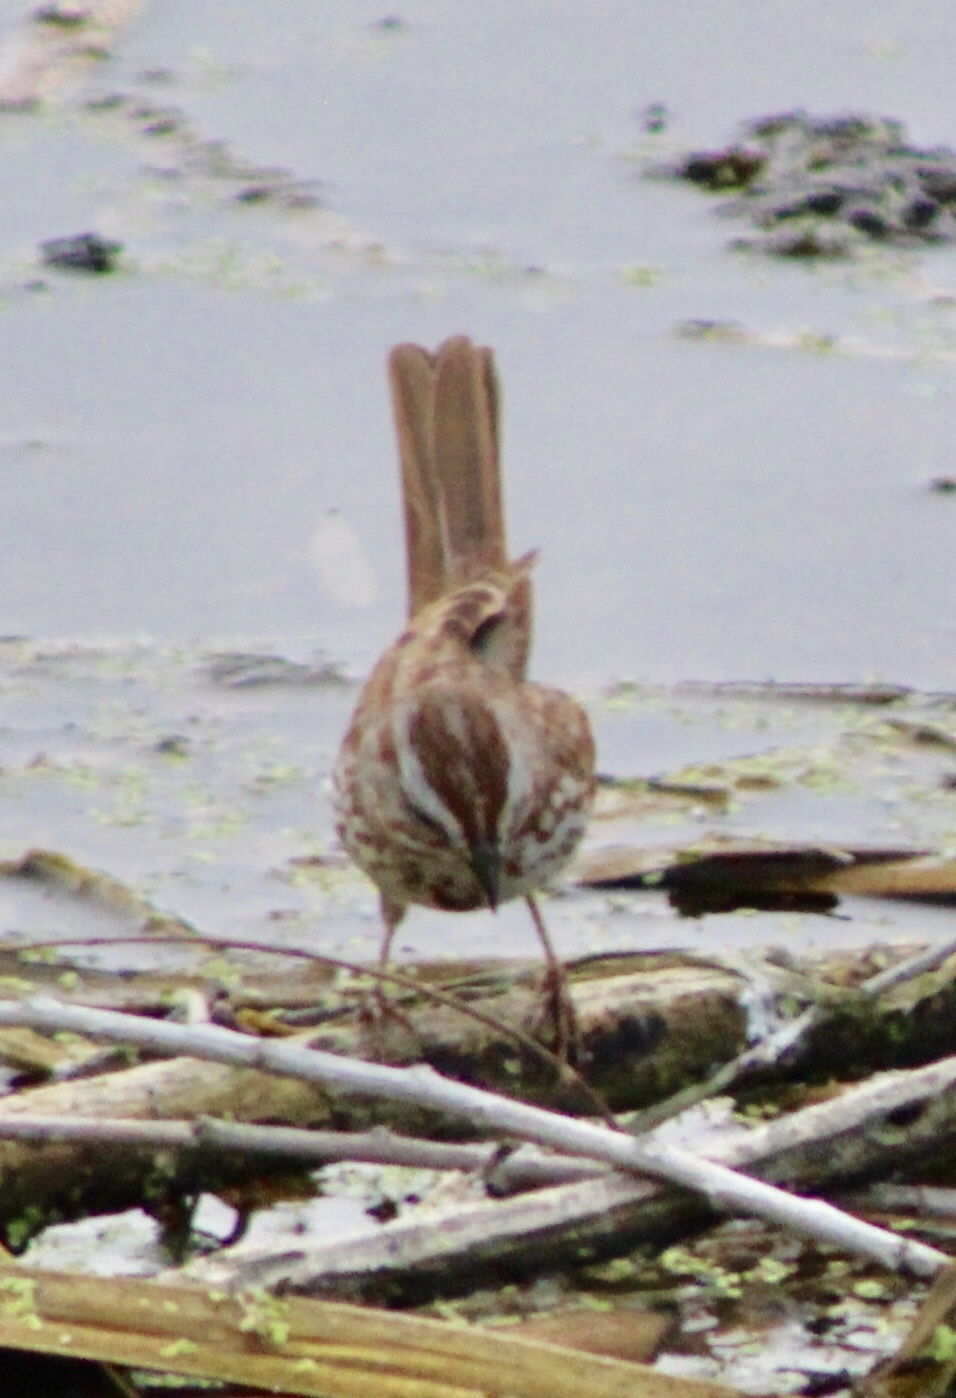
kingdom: Animalia
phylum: Chordata
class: Aves
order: Passeriformes
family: Passerellidae
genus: Melospiza
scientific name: Melospiza melodia
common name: Song sparrow
